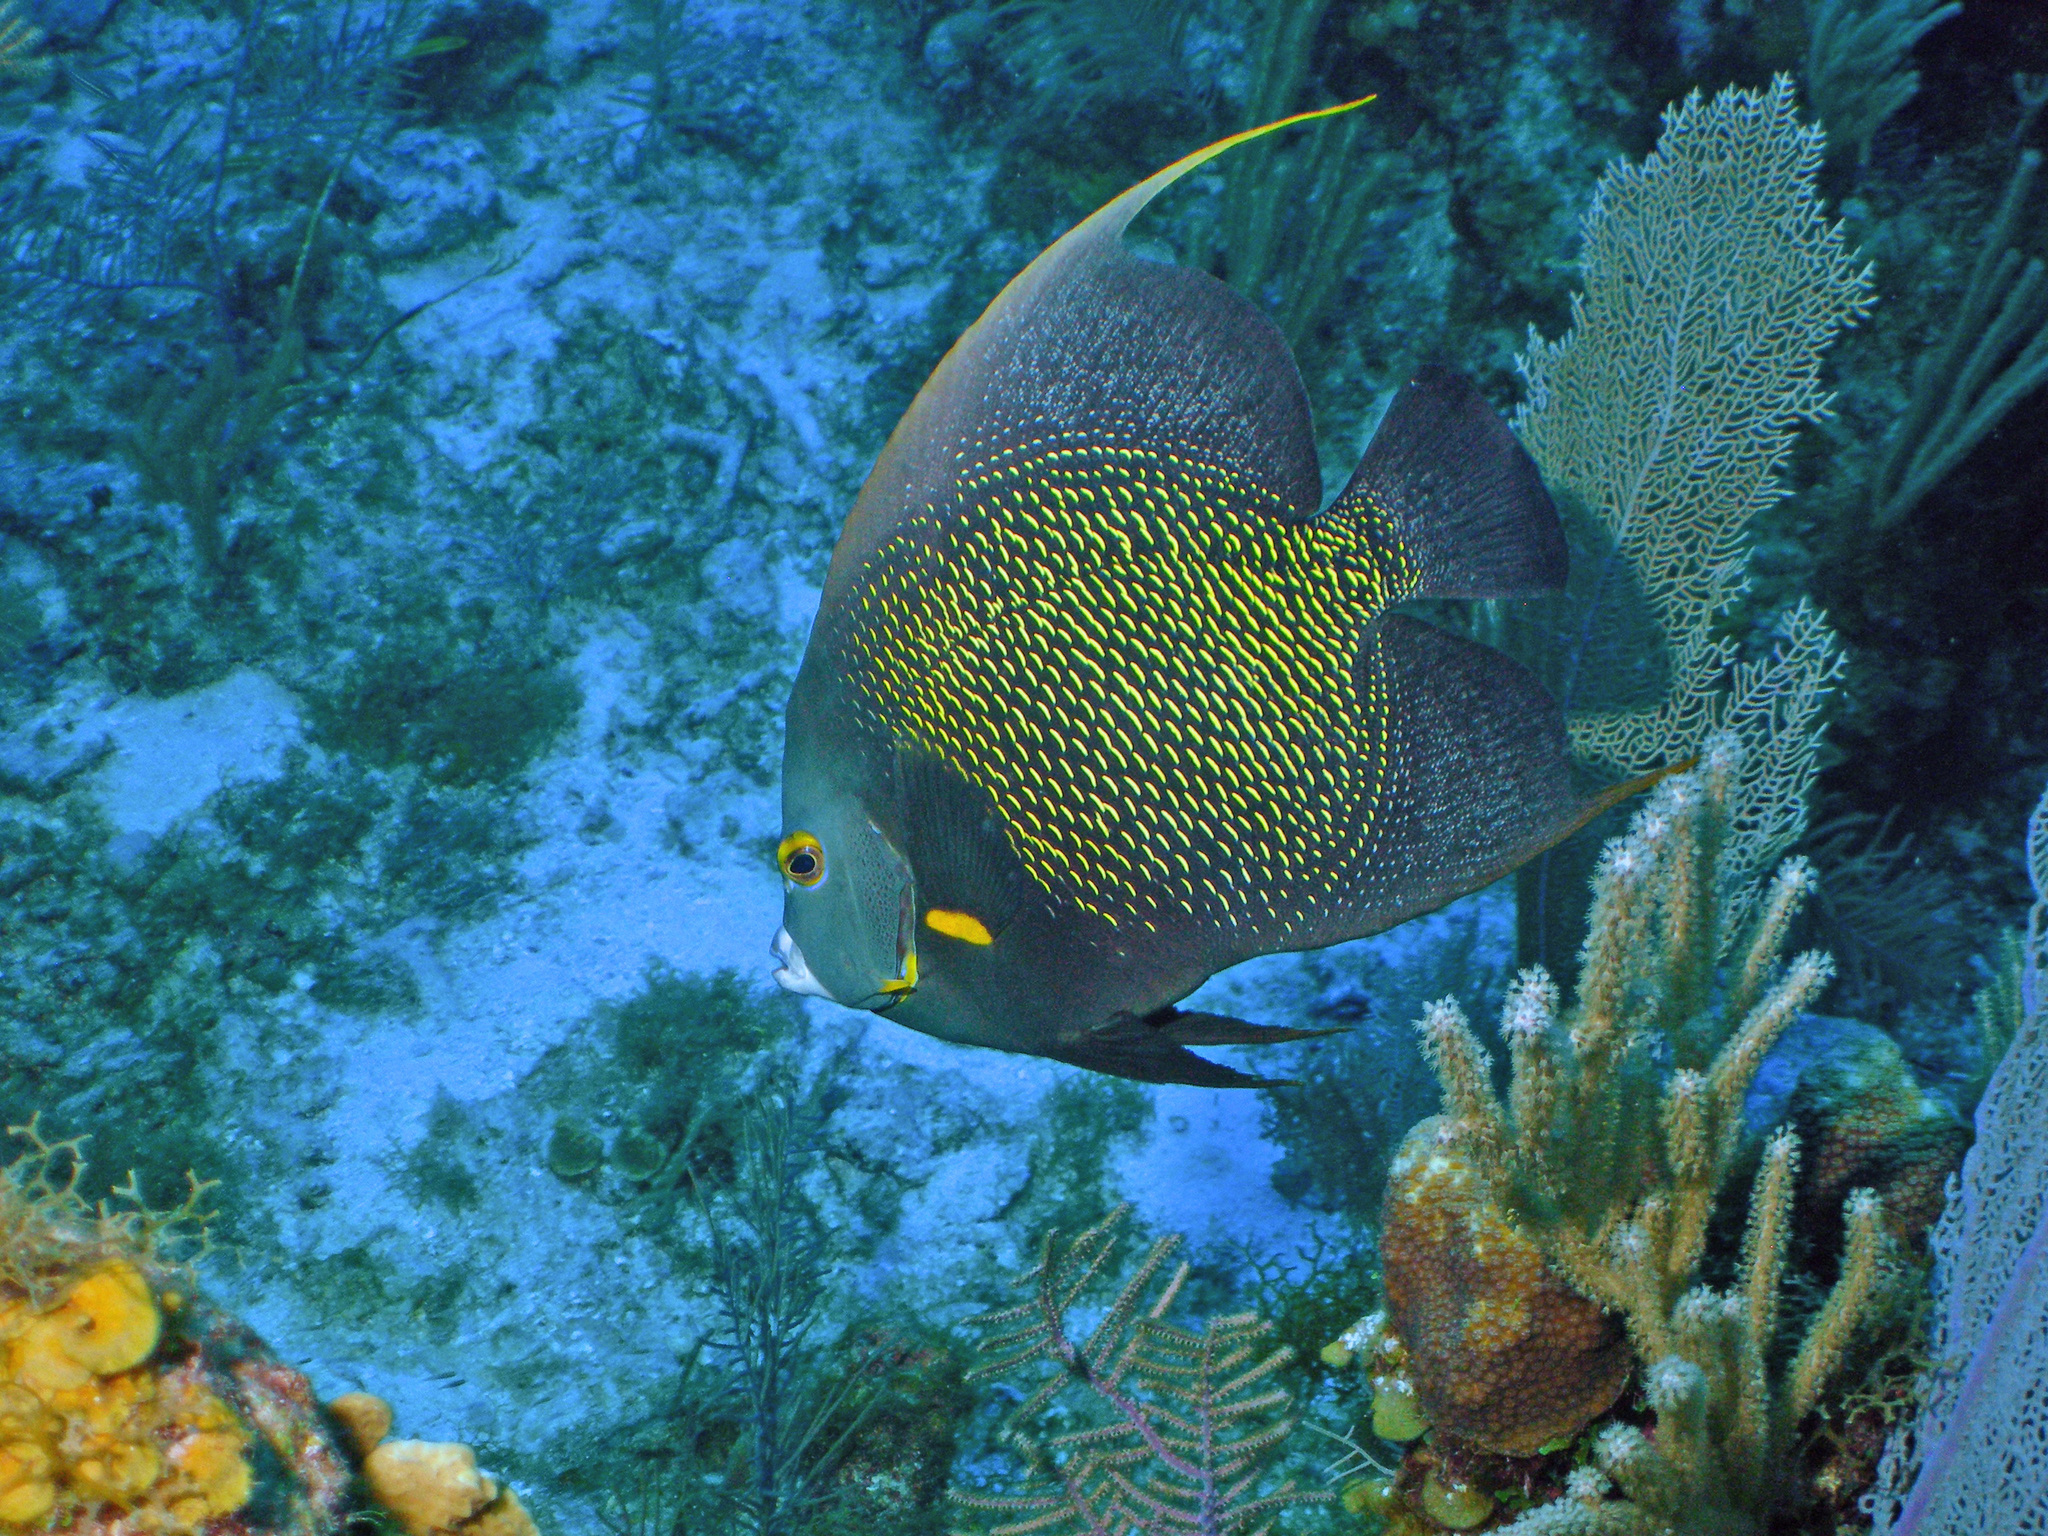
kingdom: Animalia
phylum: Chordata
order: Perciformes
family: Pomacanthidae
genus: Pomacanthus
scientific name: Pomacanthus paru
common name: French angelfish
